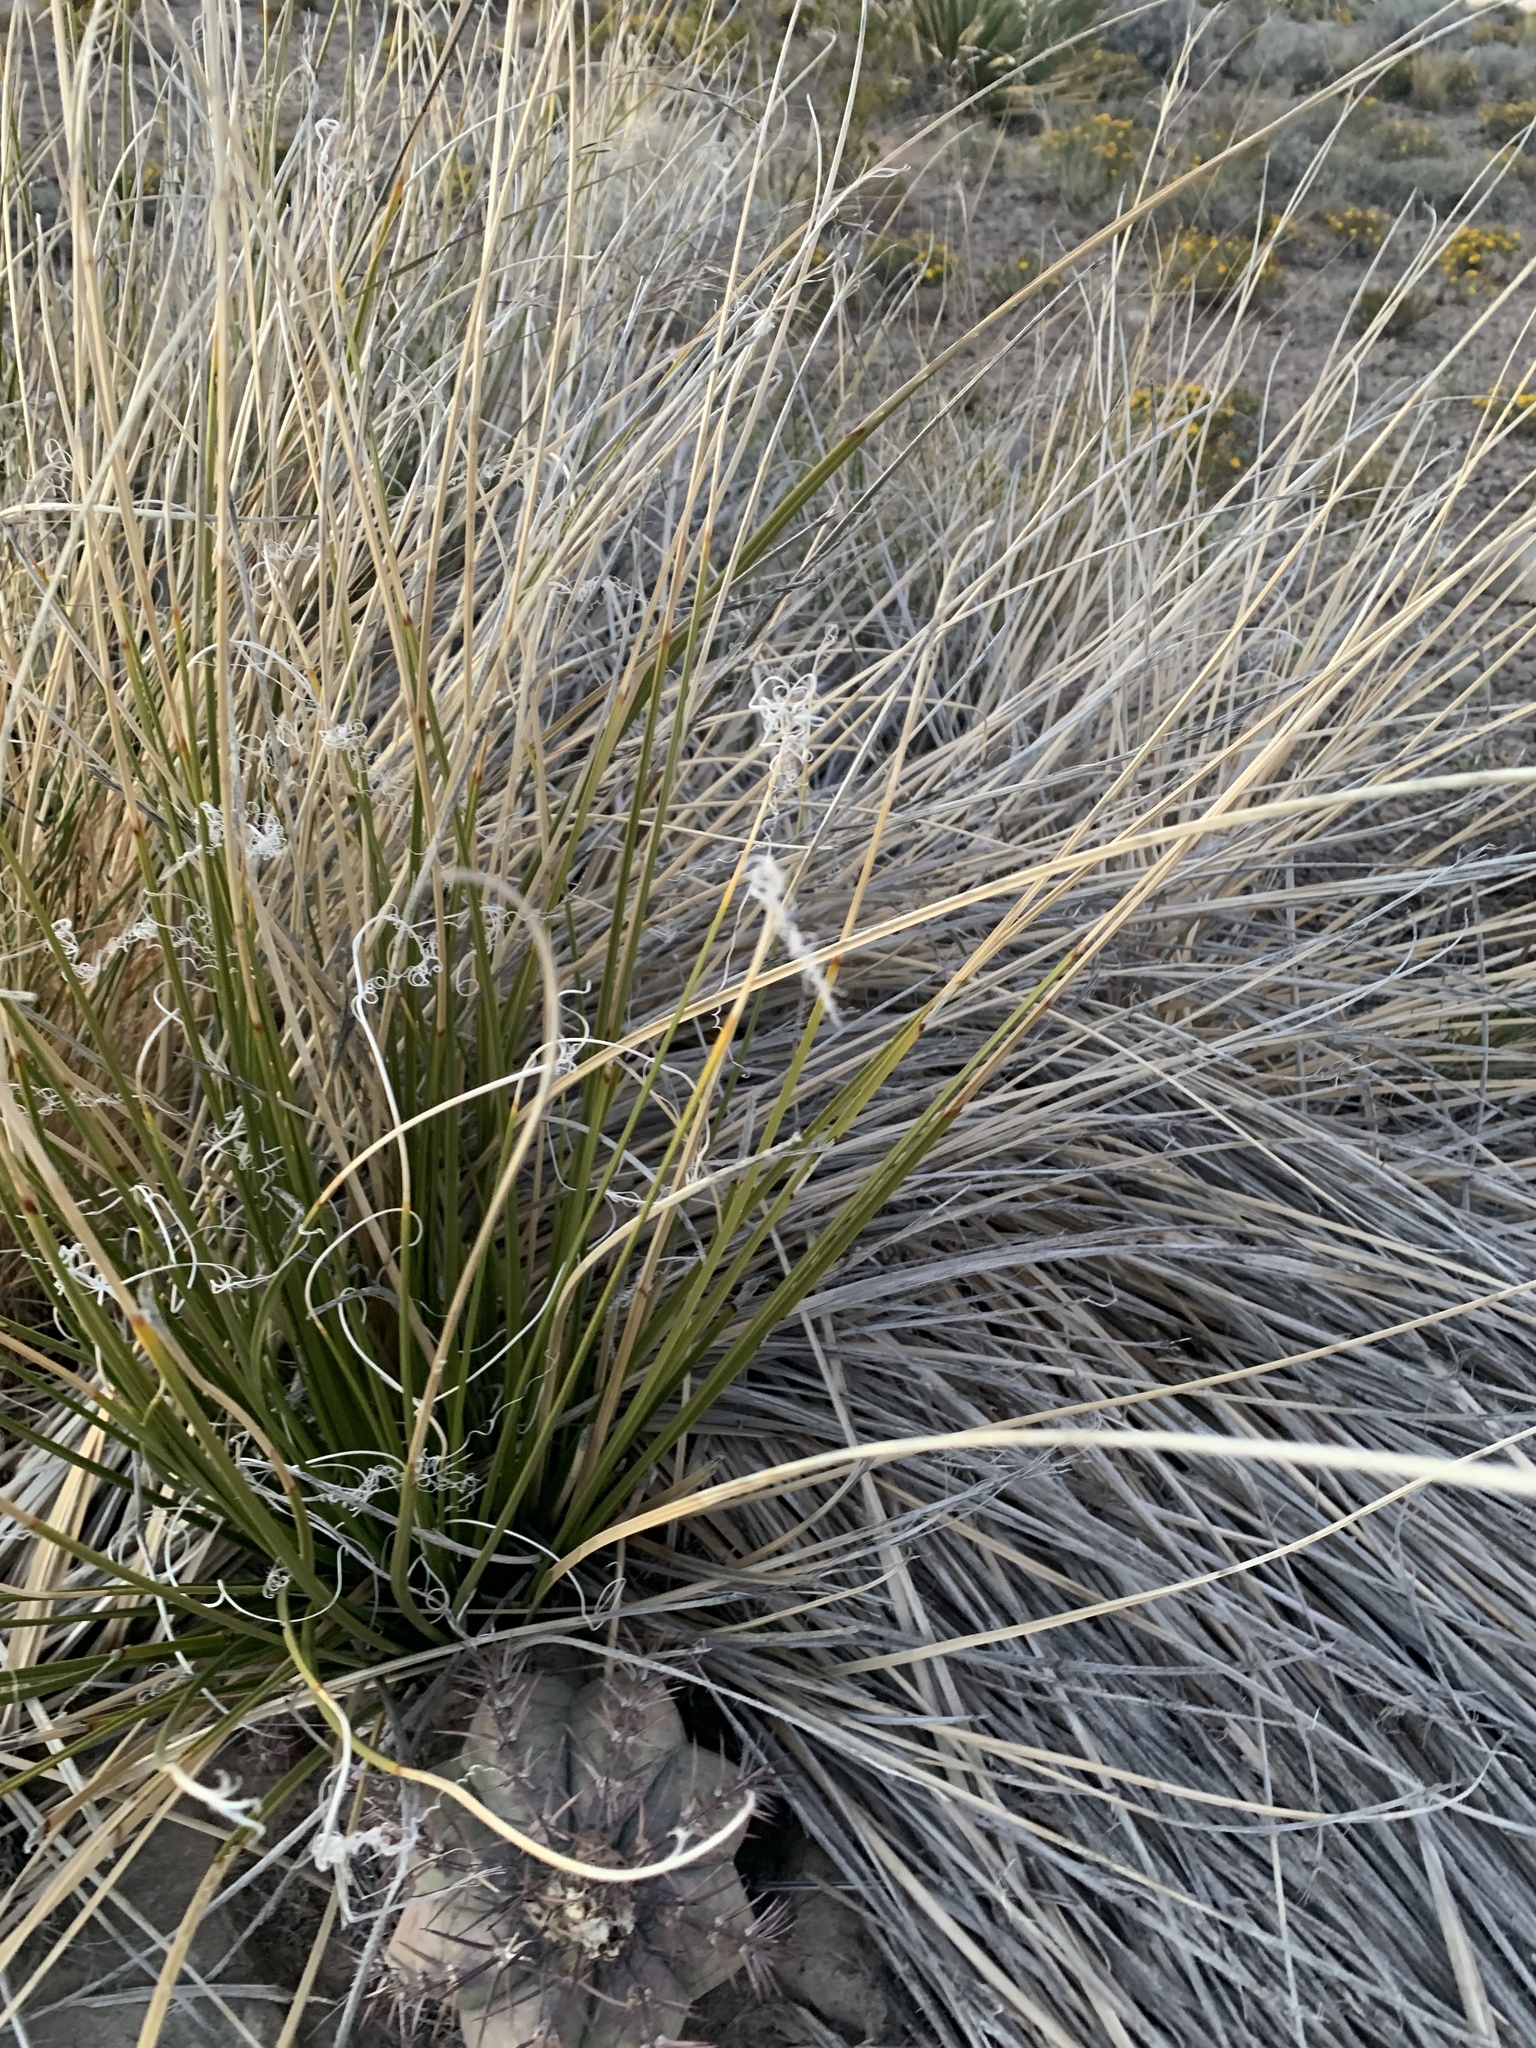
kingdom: Plantae
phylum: Tracheophyta
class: Liliopsida
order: Asparagales
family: Asparagaceae
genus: Nolina
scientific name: Nolina texana
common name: Texas sacahuiste
